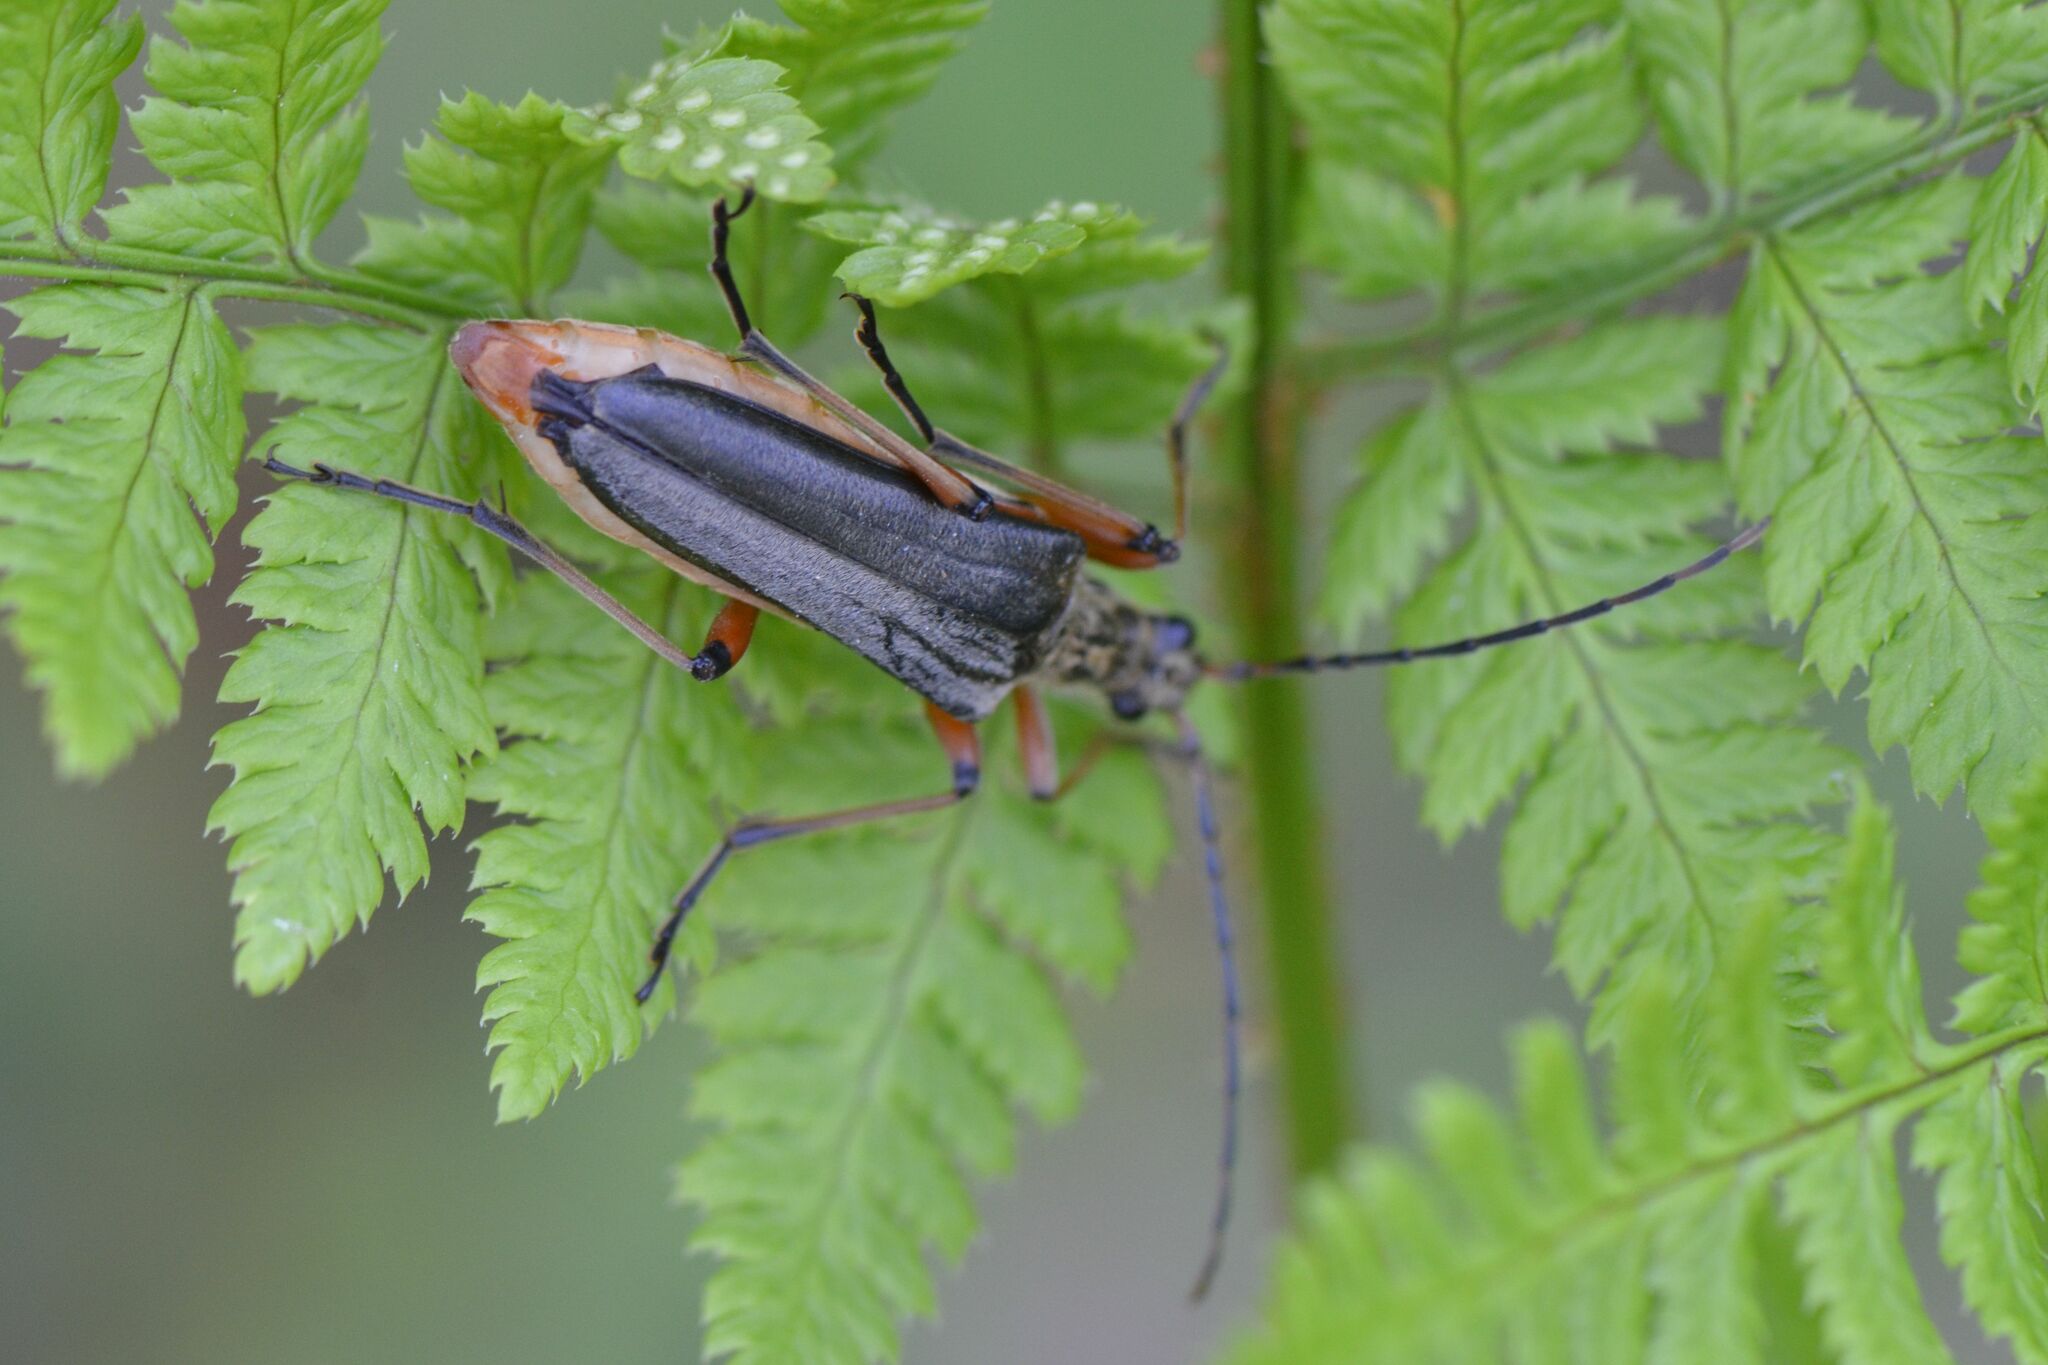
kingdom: Animalia
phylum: Arthropoda
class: Insecta
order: Coleoptera
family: Cerambycidae
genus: Stenocorus
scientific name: Stenocorus meridianus
